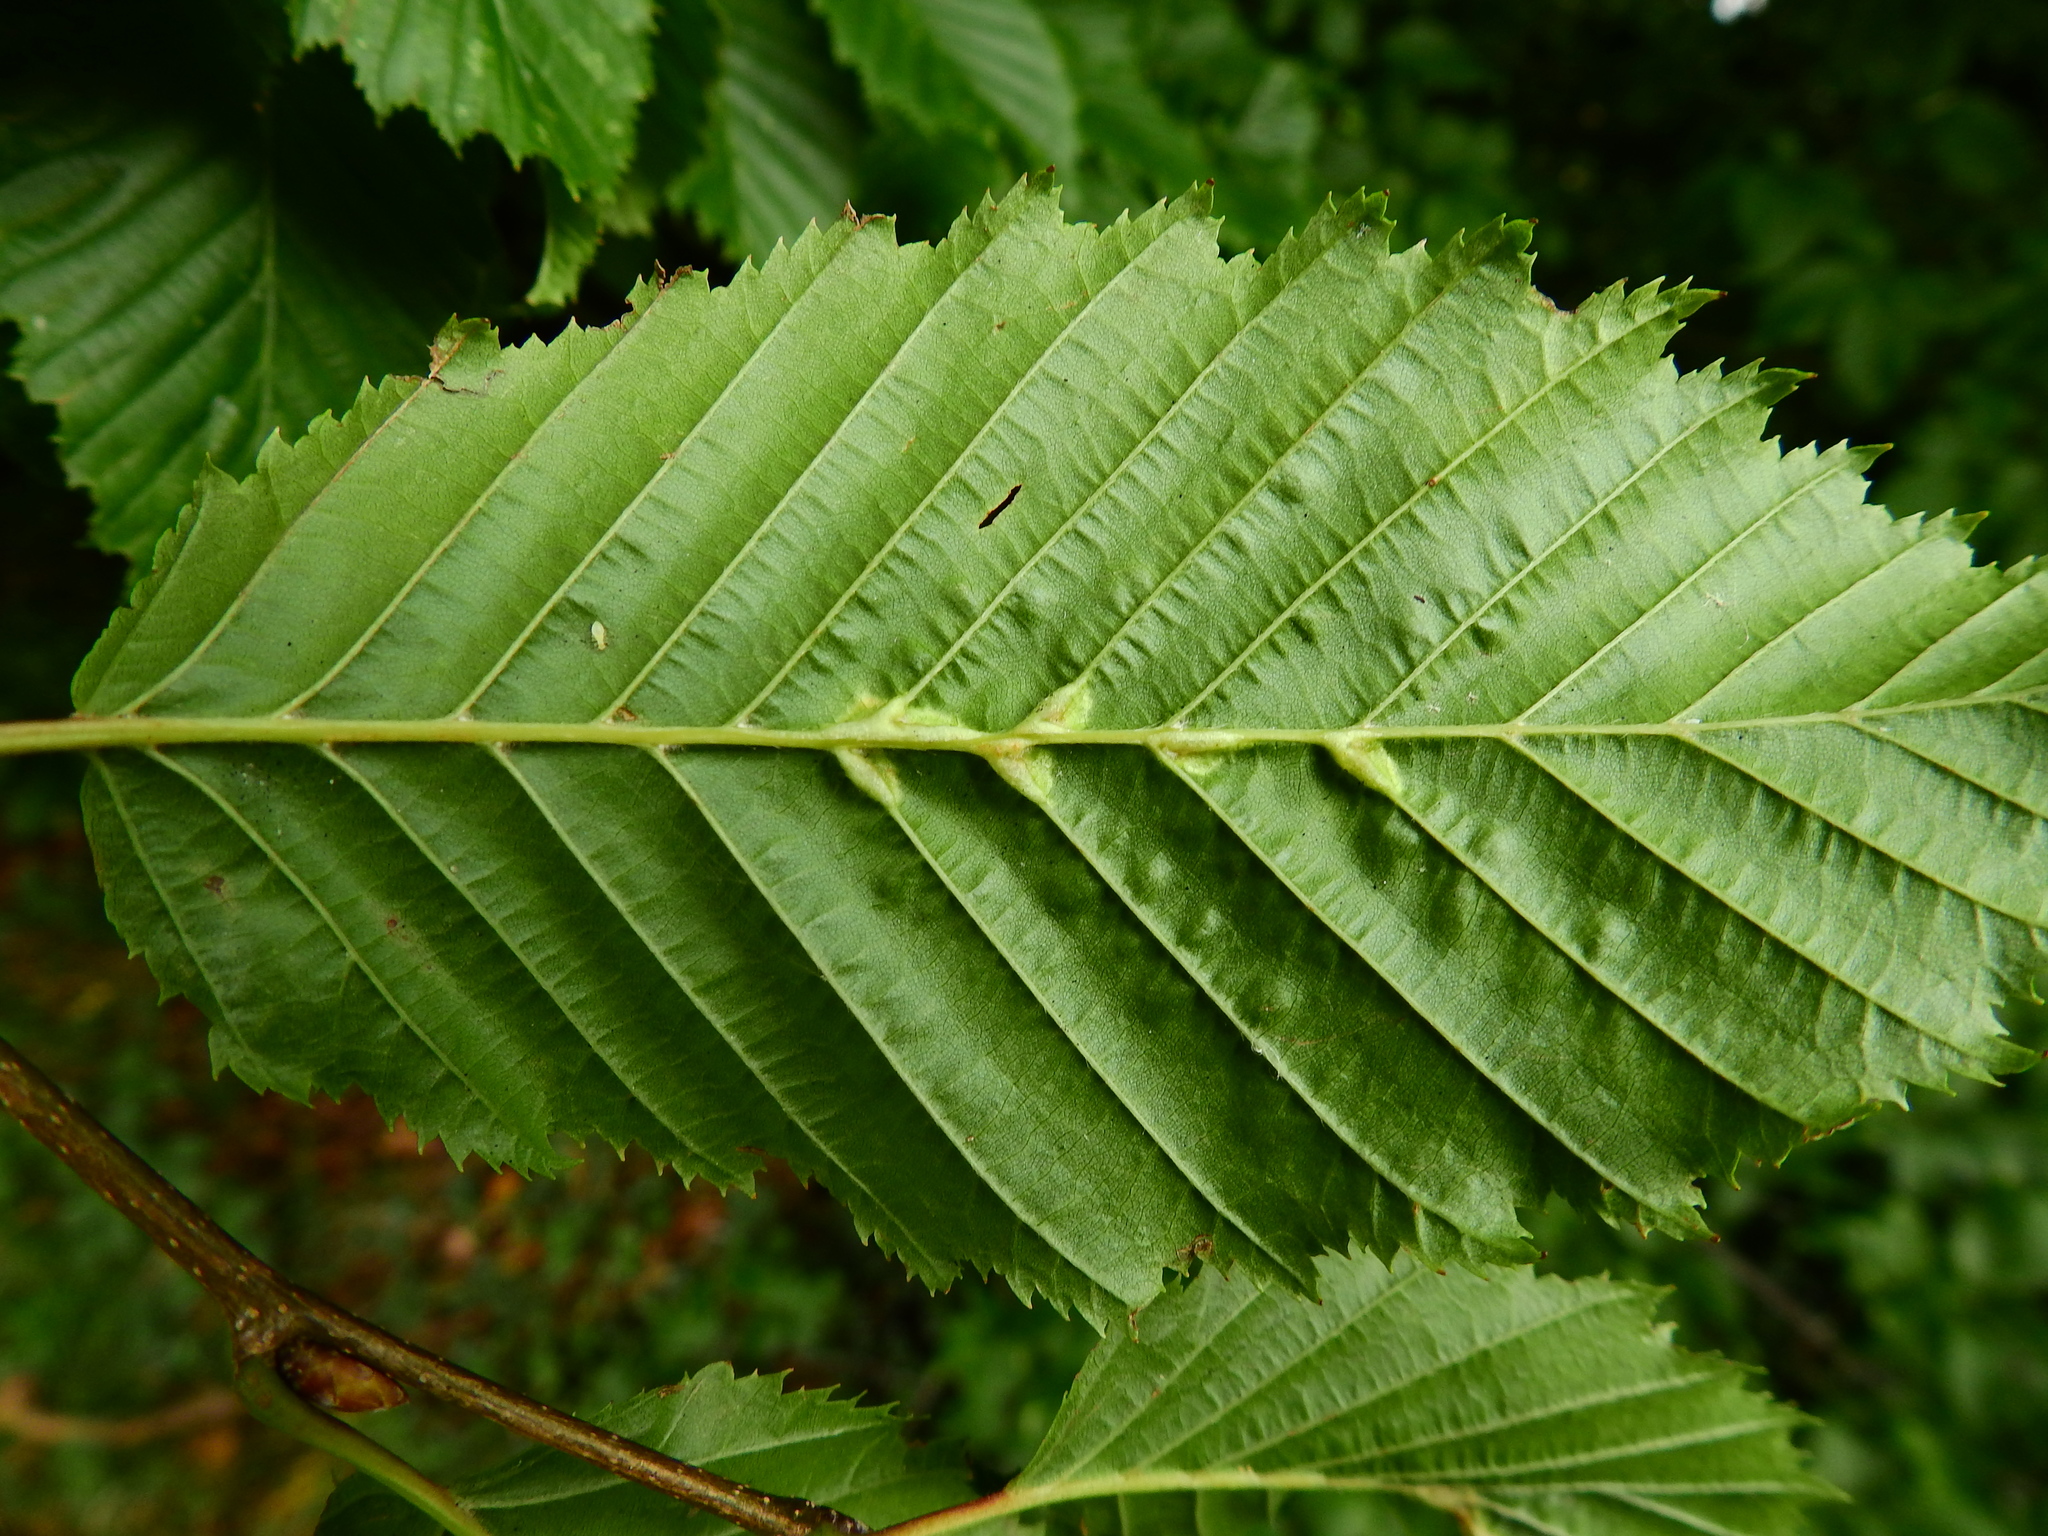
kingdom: Animalia
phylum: Arthropoda
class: Insecta
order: Diptera
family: Cecidomyiidae
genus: Zygiobia
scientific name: Zygiobia carpini
